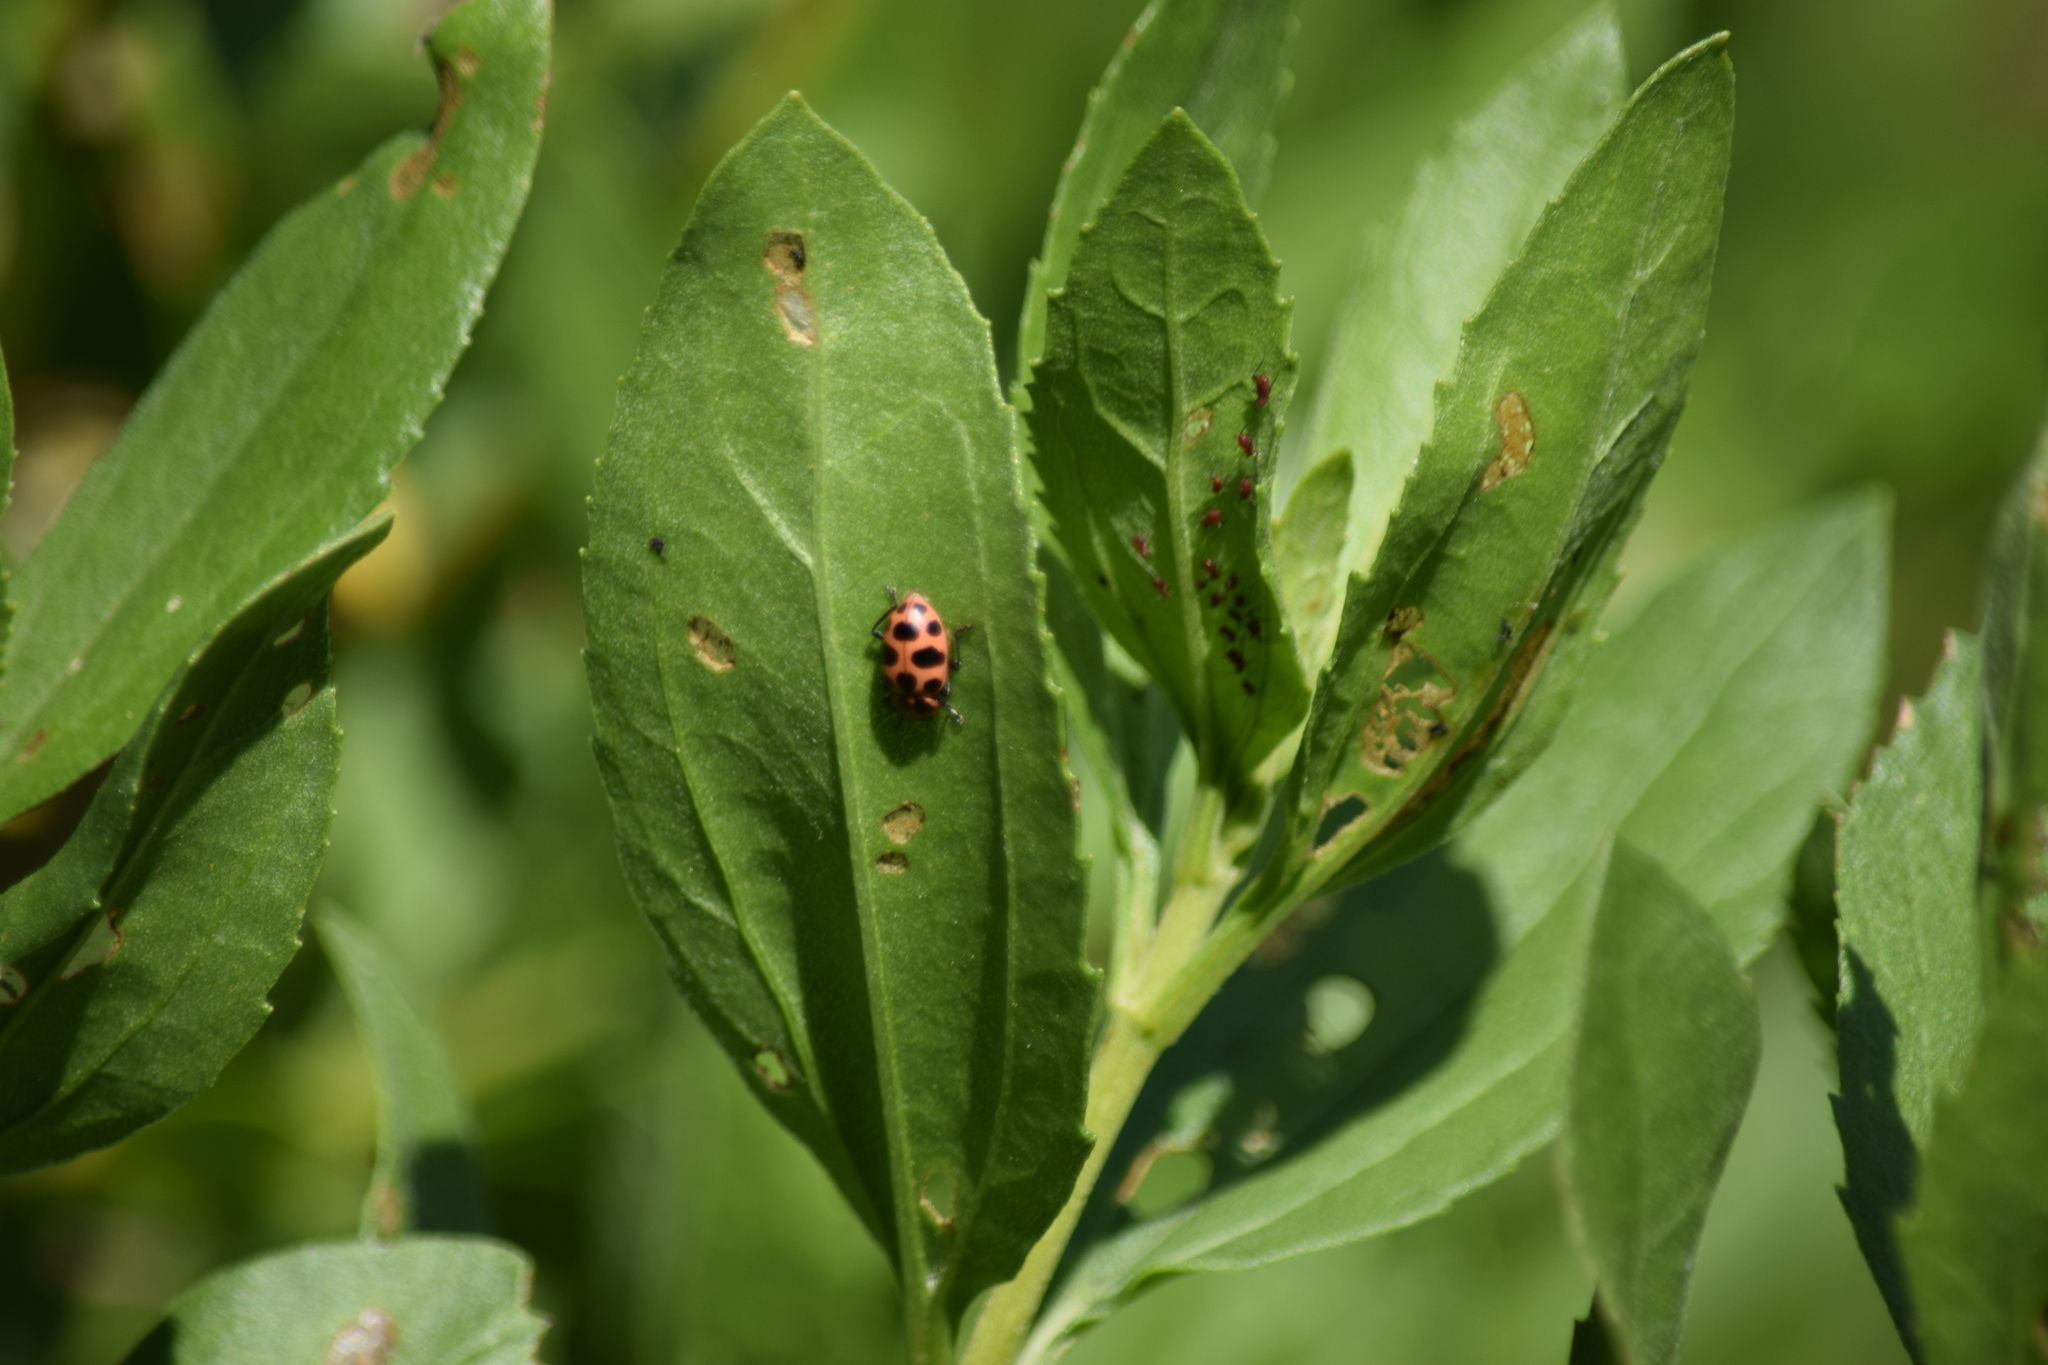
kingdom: Animalia
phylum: Arthropoda
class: Insecta
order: Coleoptera
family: Coccinellidae
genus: Coleomegilla
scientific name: Coleomegilla maculata
